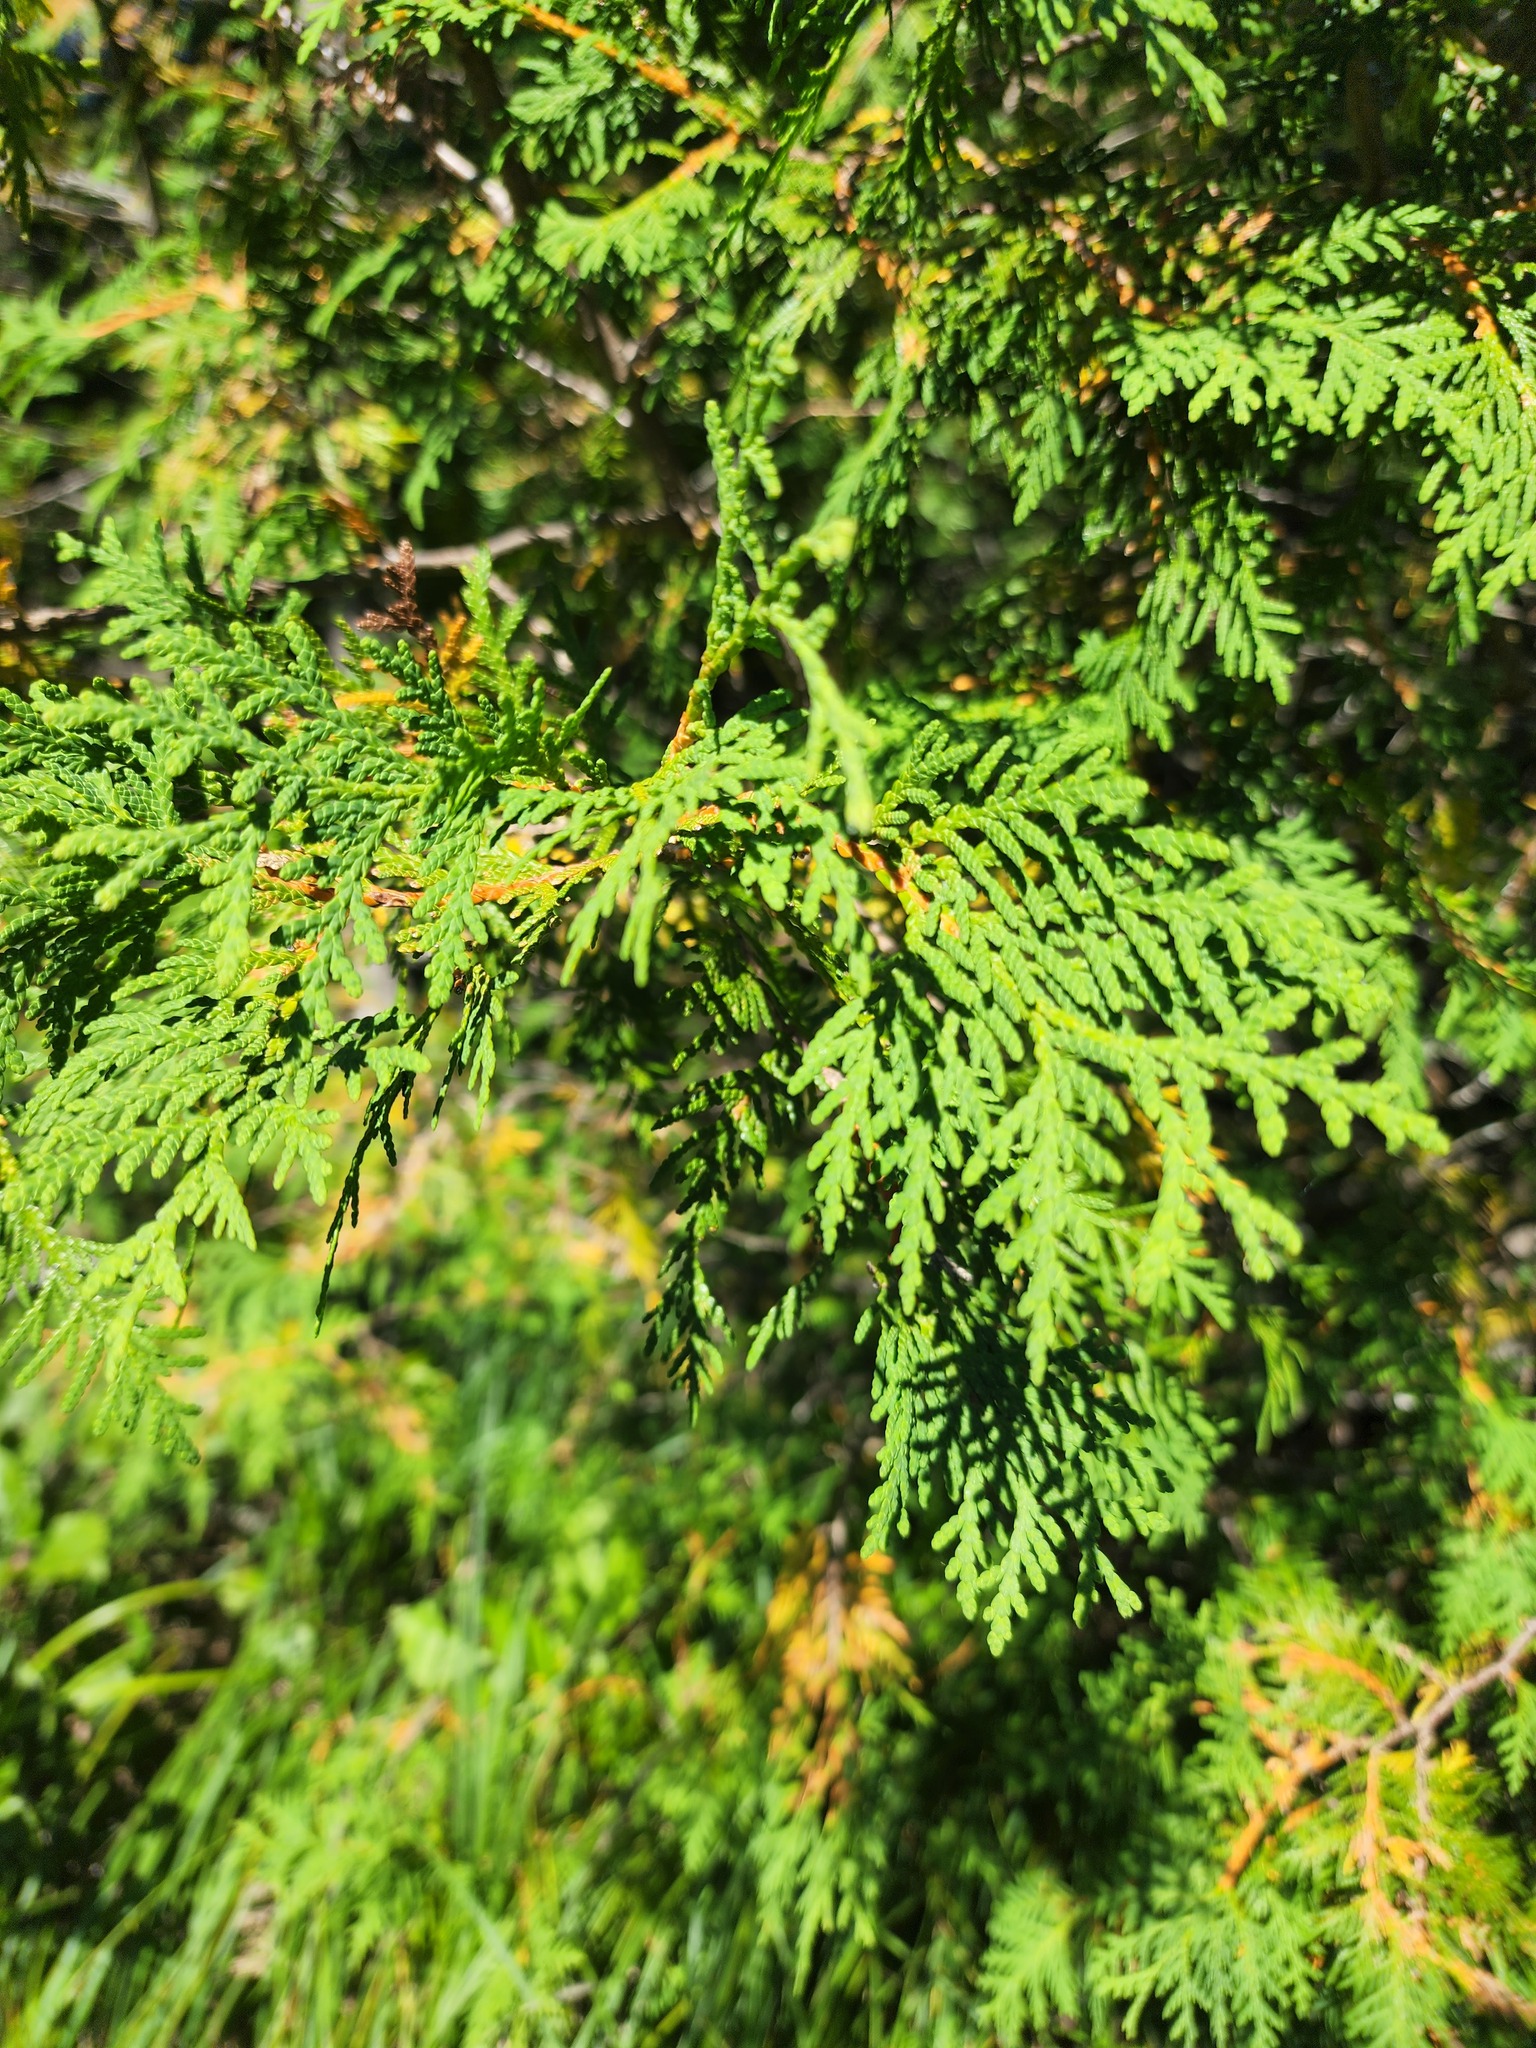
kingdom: Plantae
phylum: Tracheophyta
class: Pinopsida
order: Pinales
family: Cupressaceae
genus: Thuja
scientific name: Thuja occidentalis
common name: Northern white-cedar
